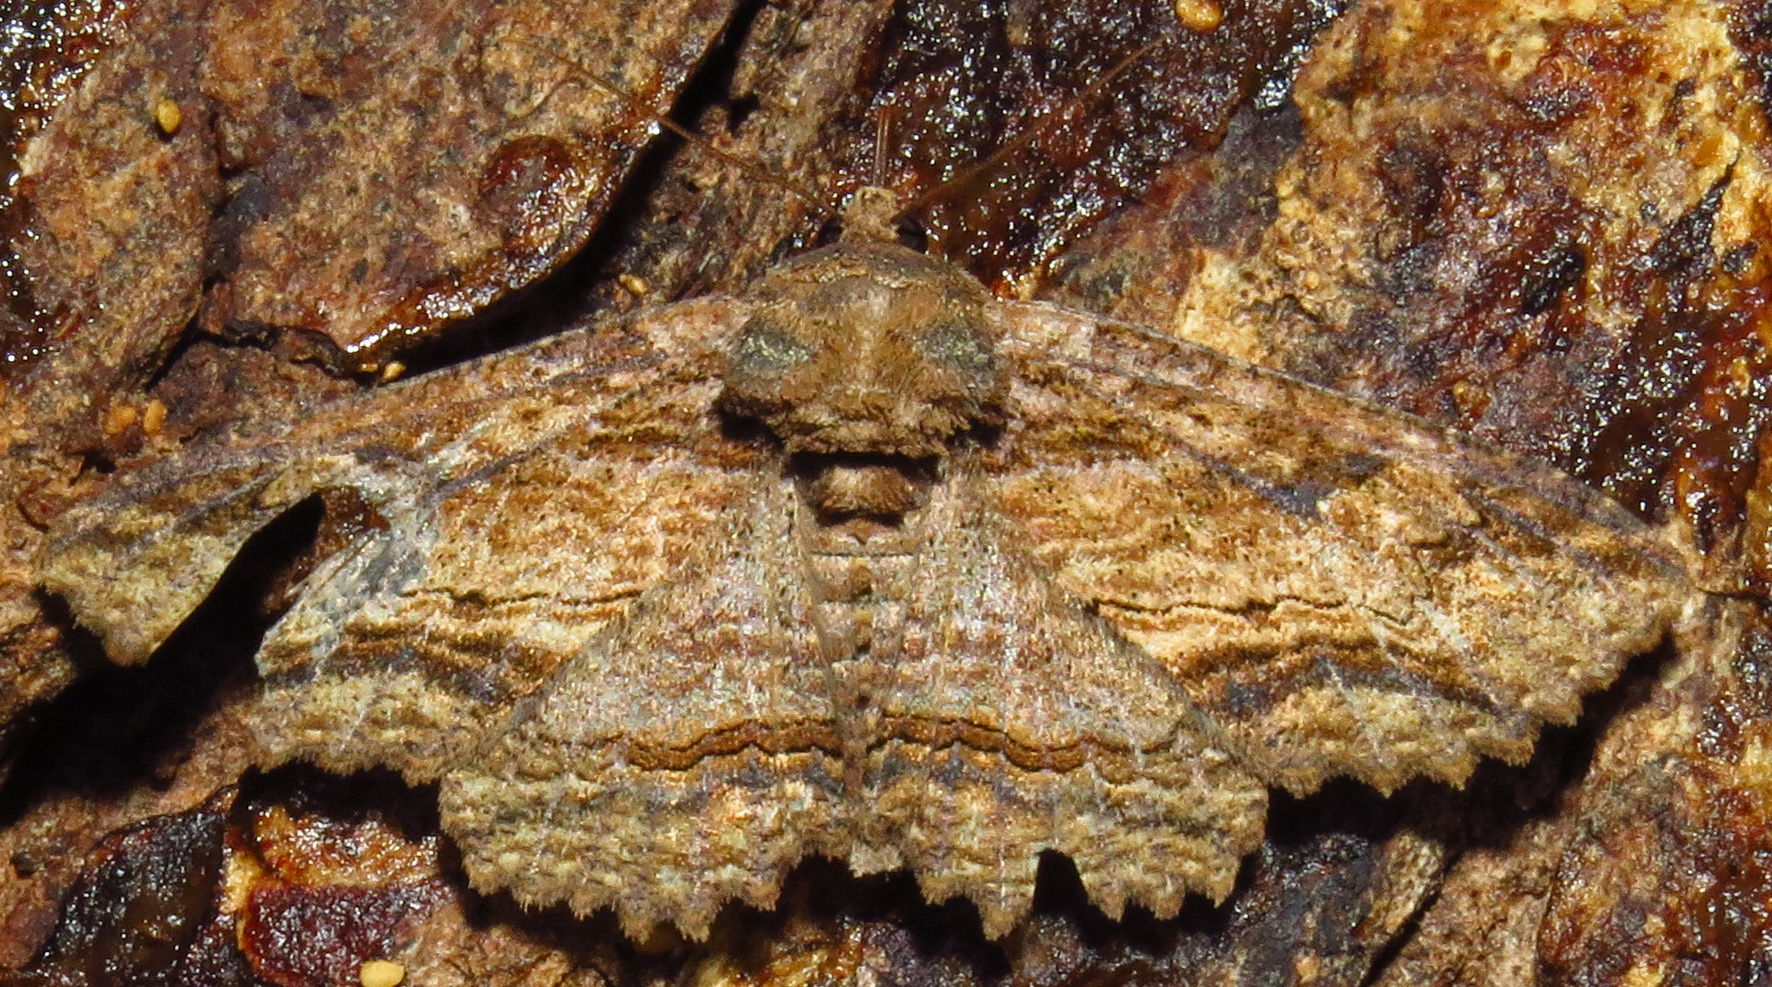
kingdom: Animalia
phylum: Arthropoda
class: Insecta
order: Lepidoptera
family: Erebidae
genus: Zale
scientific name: Zale lunata
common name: Lunate zale moth
